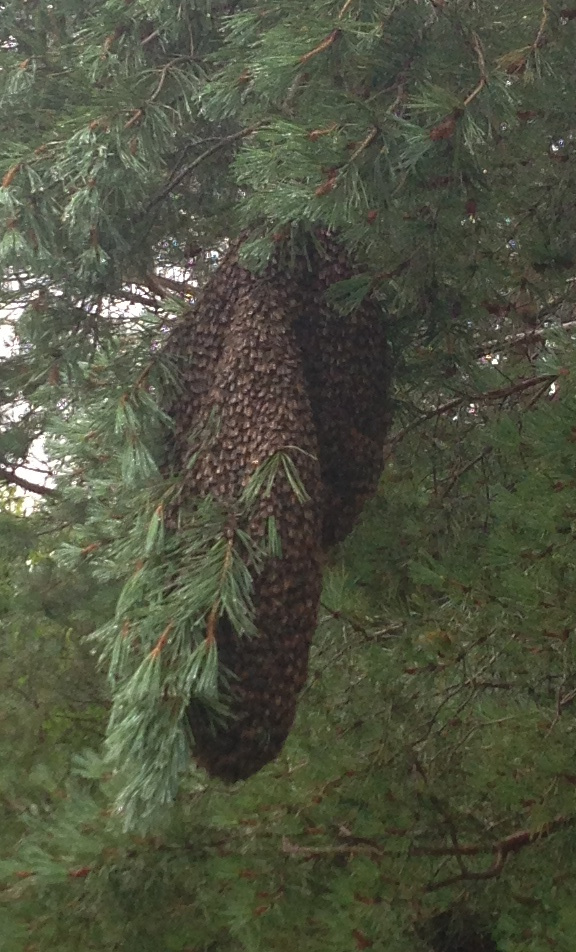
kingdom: Animalia
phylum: Arthropoda
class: Insecta
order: Hymenoptera
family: Apidae
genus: Apis
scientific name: Apis mellifera
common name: Honey bee
